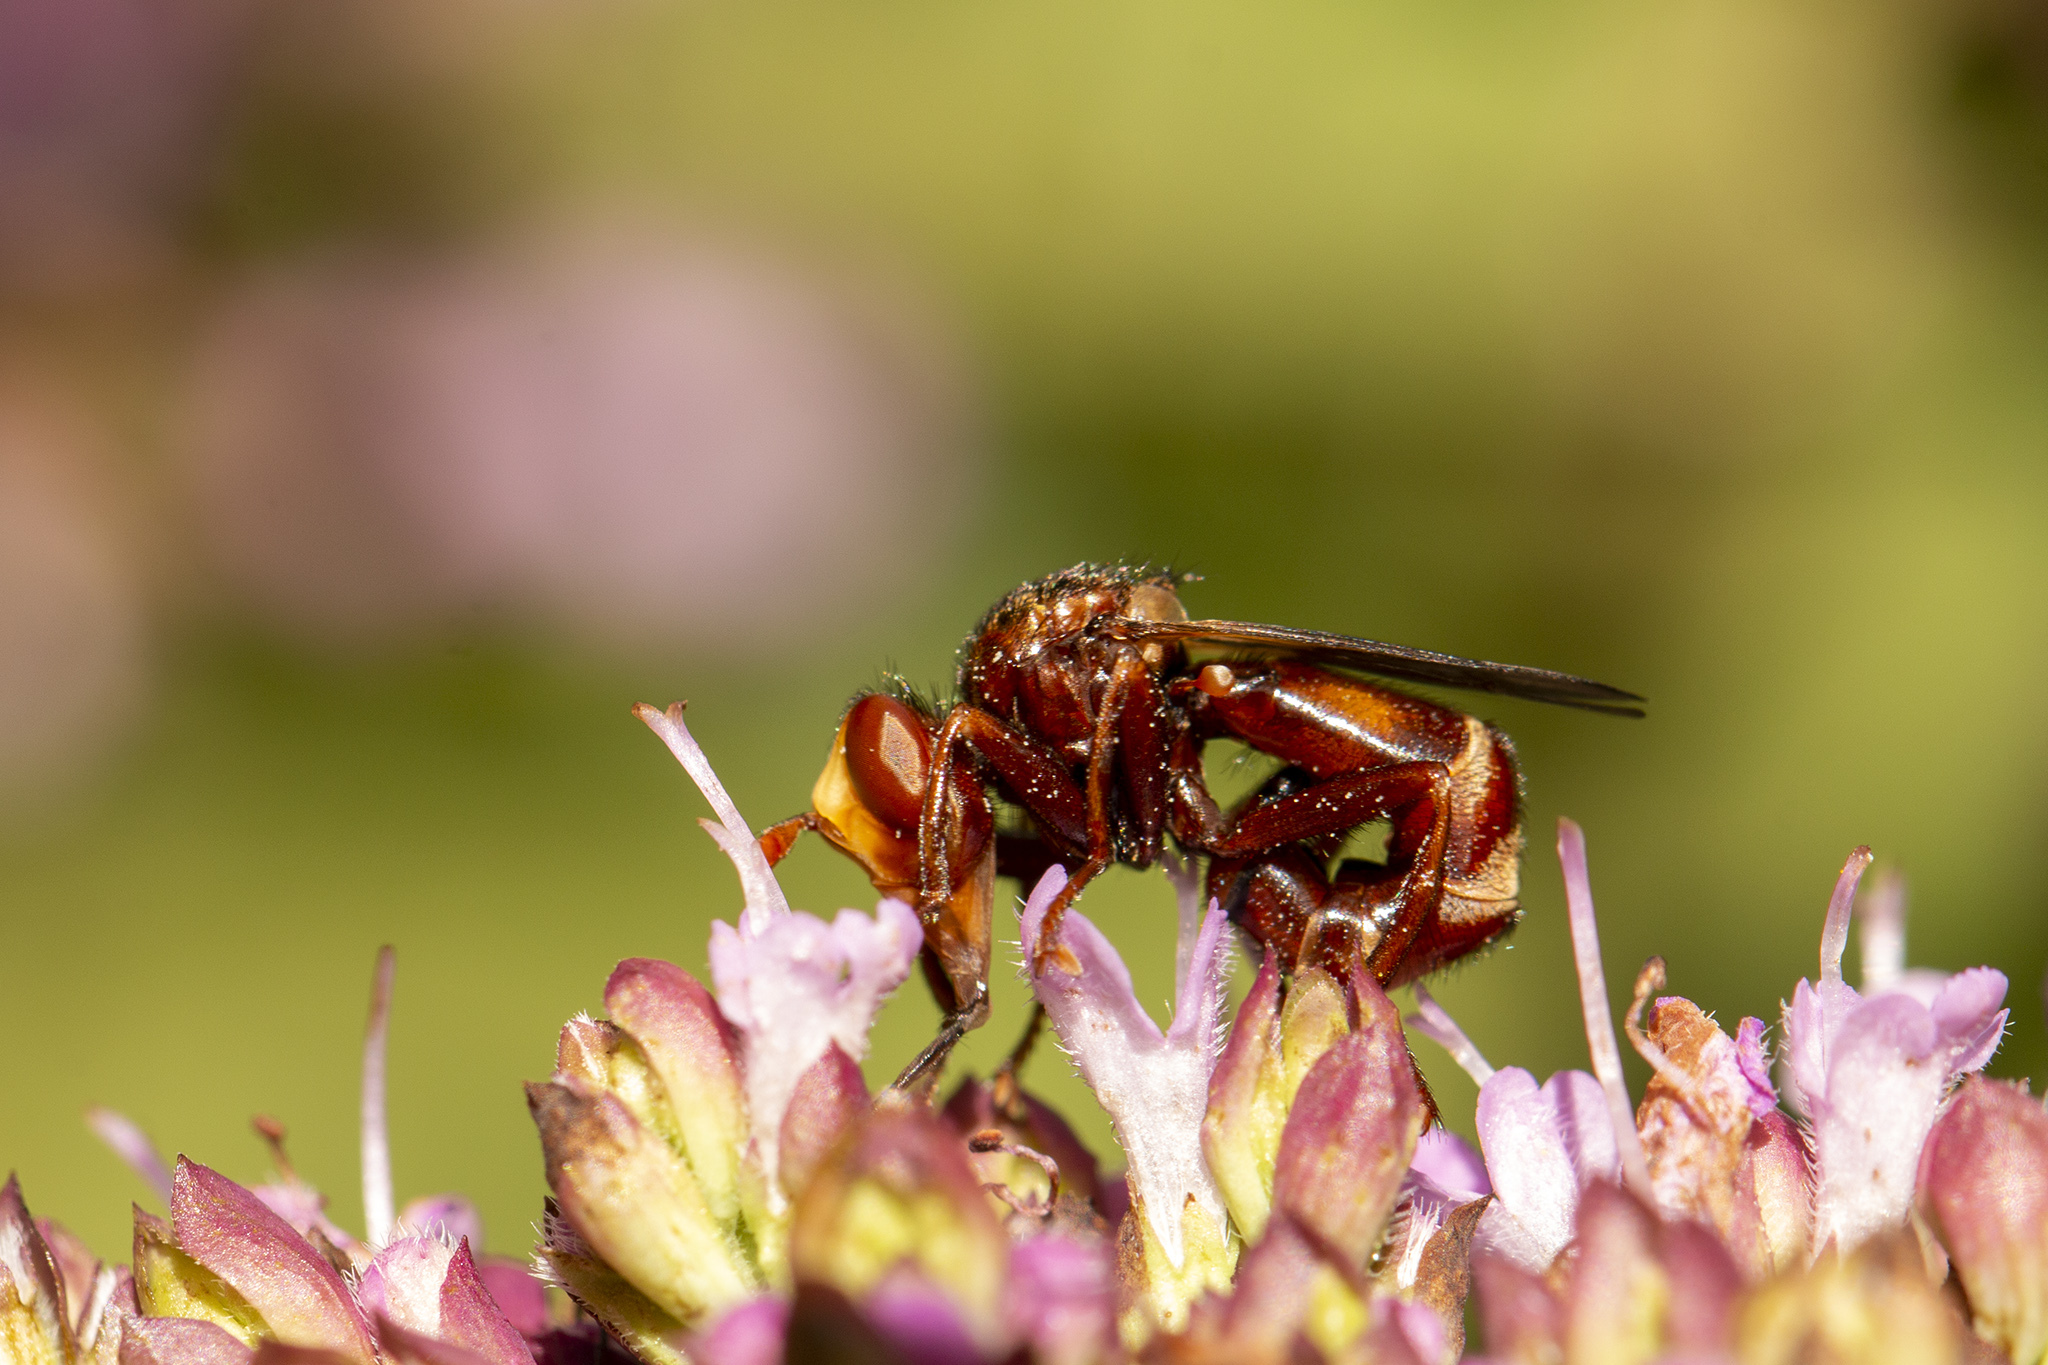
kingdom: Animalia
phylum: Arthropoda
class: Insecta
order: Diptera
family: Conopidae
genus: Sicus
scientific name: Sicus ferrugineus
